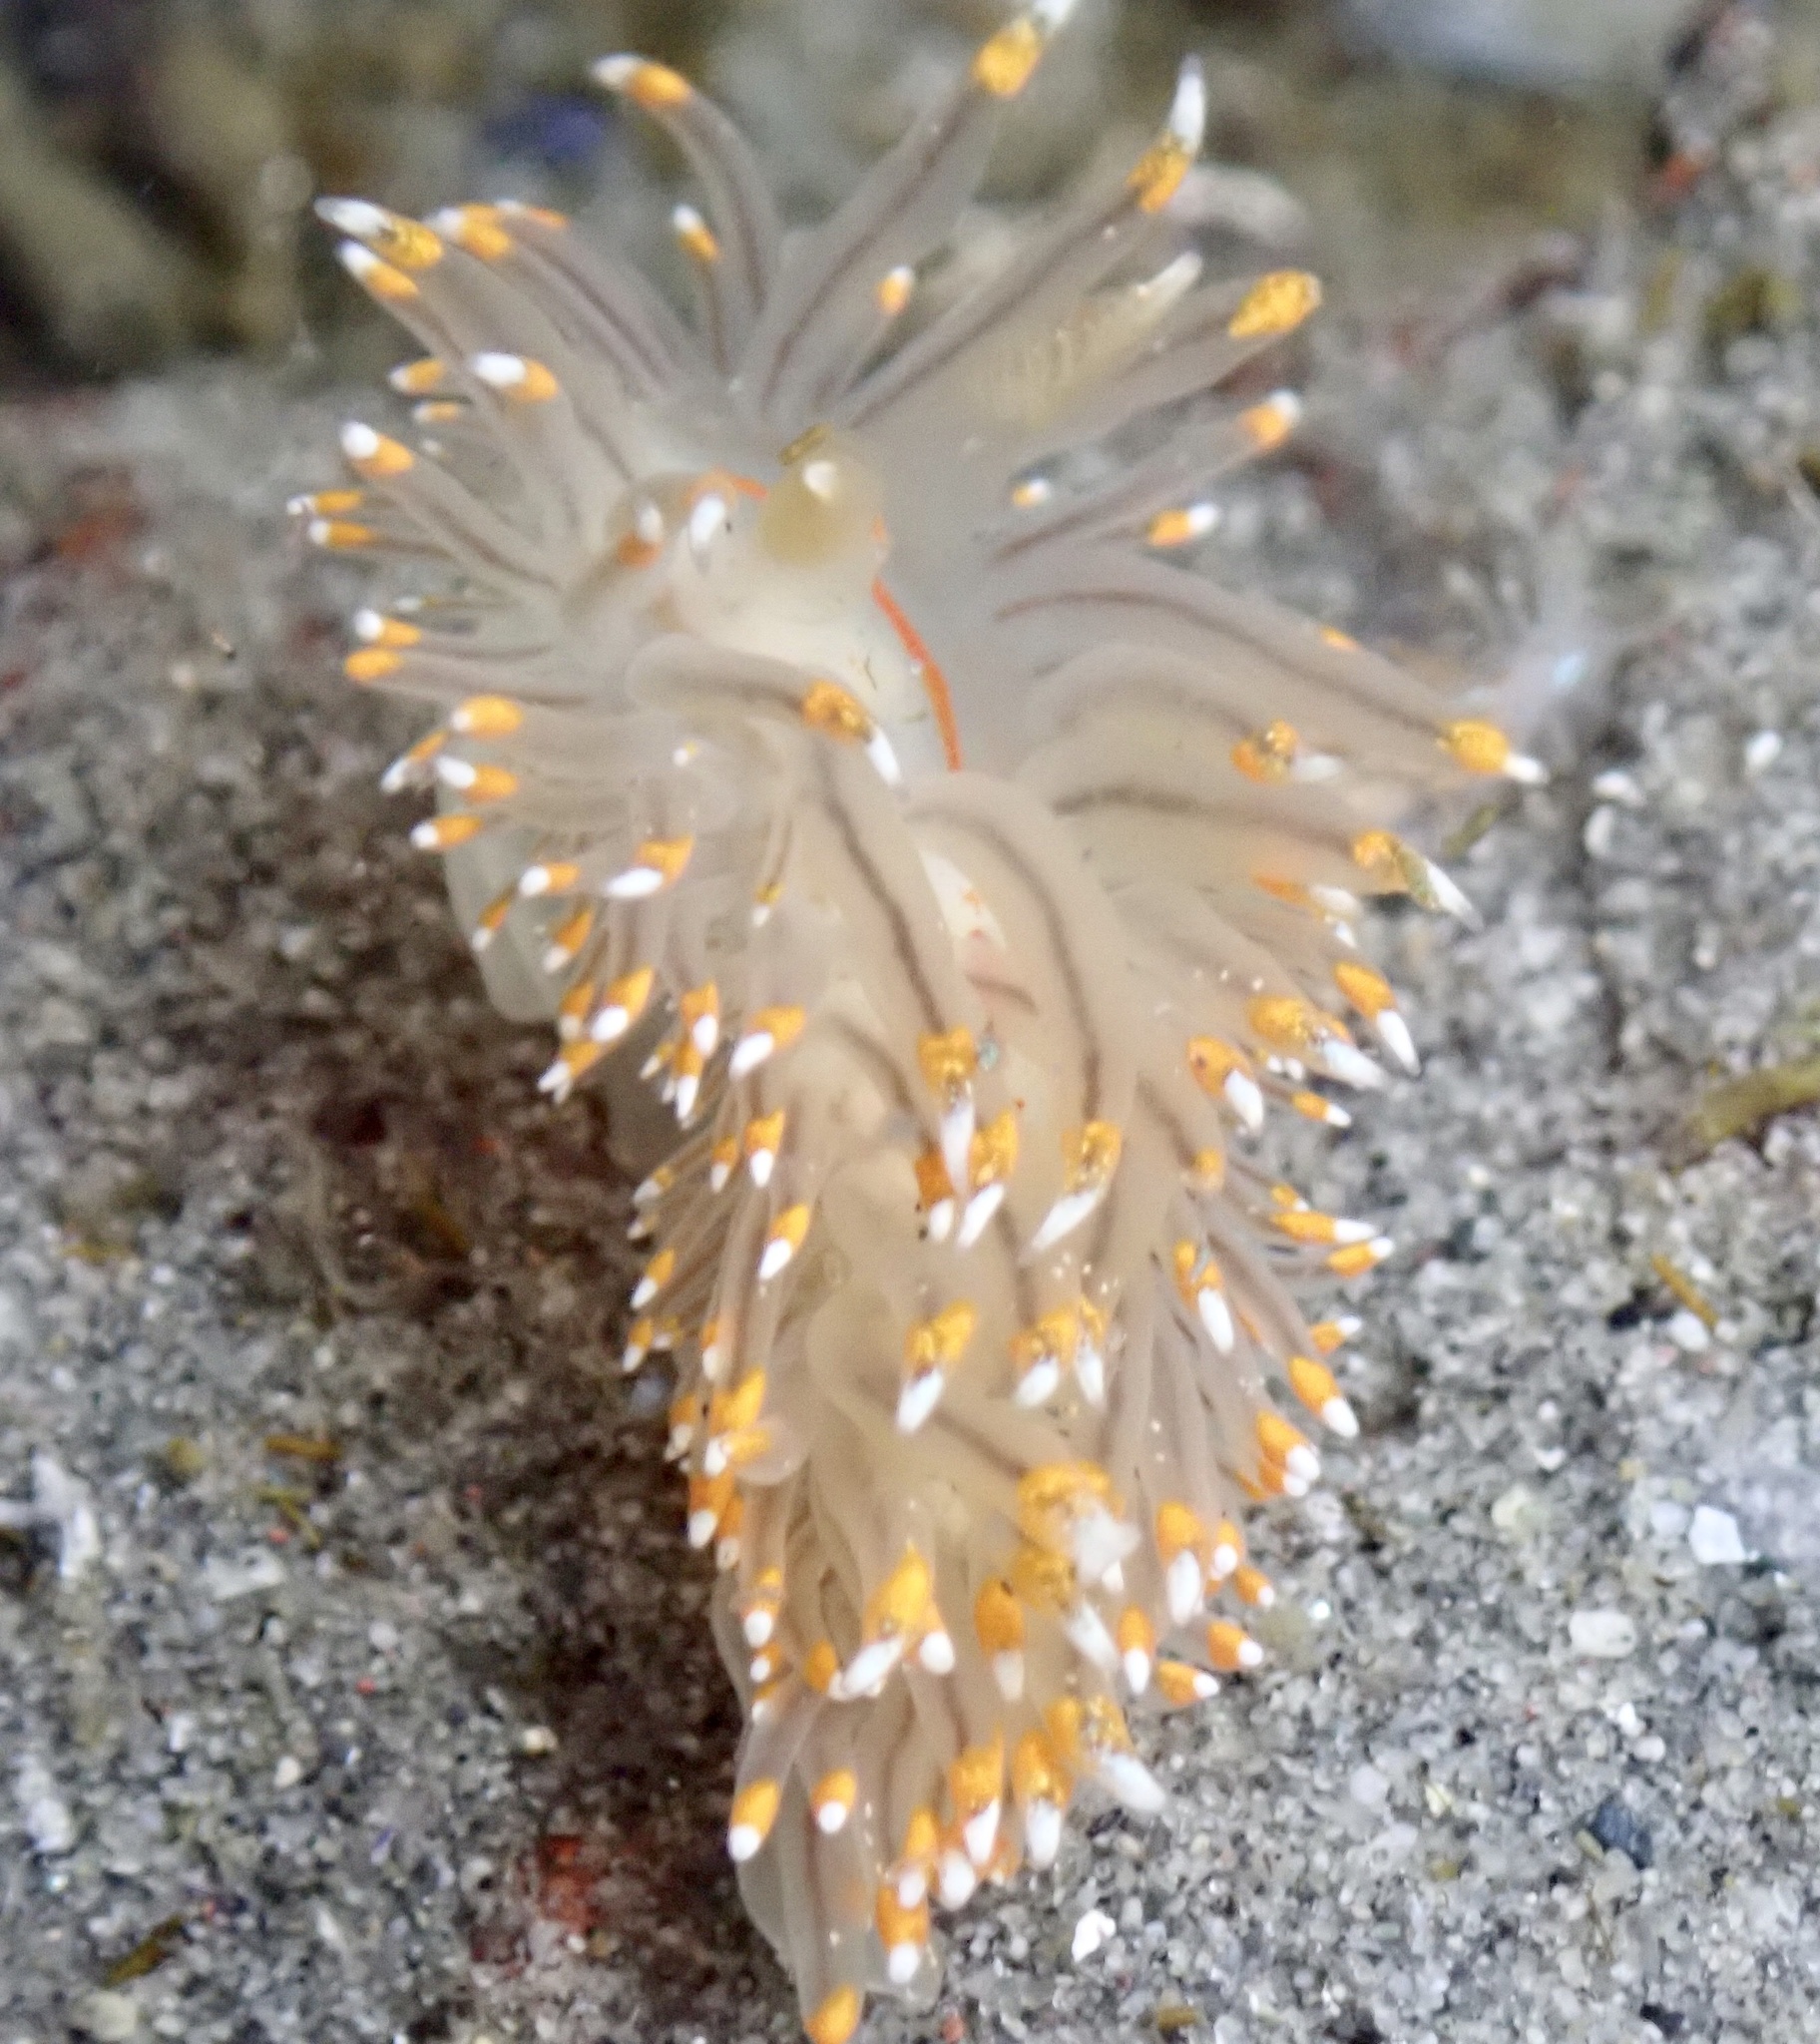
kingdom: Animalia
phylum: Mollusca
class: Gastropoda
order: Nudibranchia
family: Janolidae
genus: Antiopella
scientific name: Antiopella fusca
